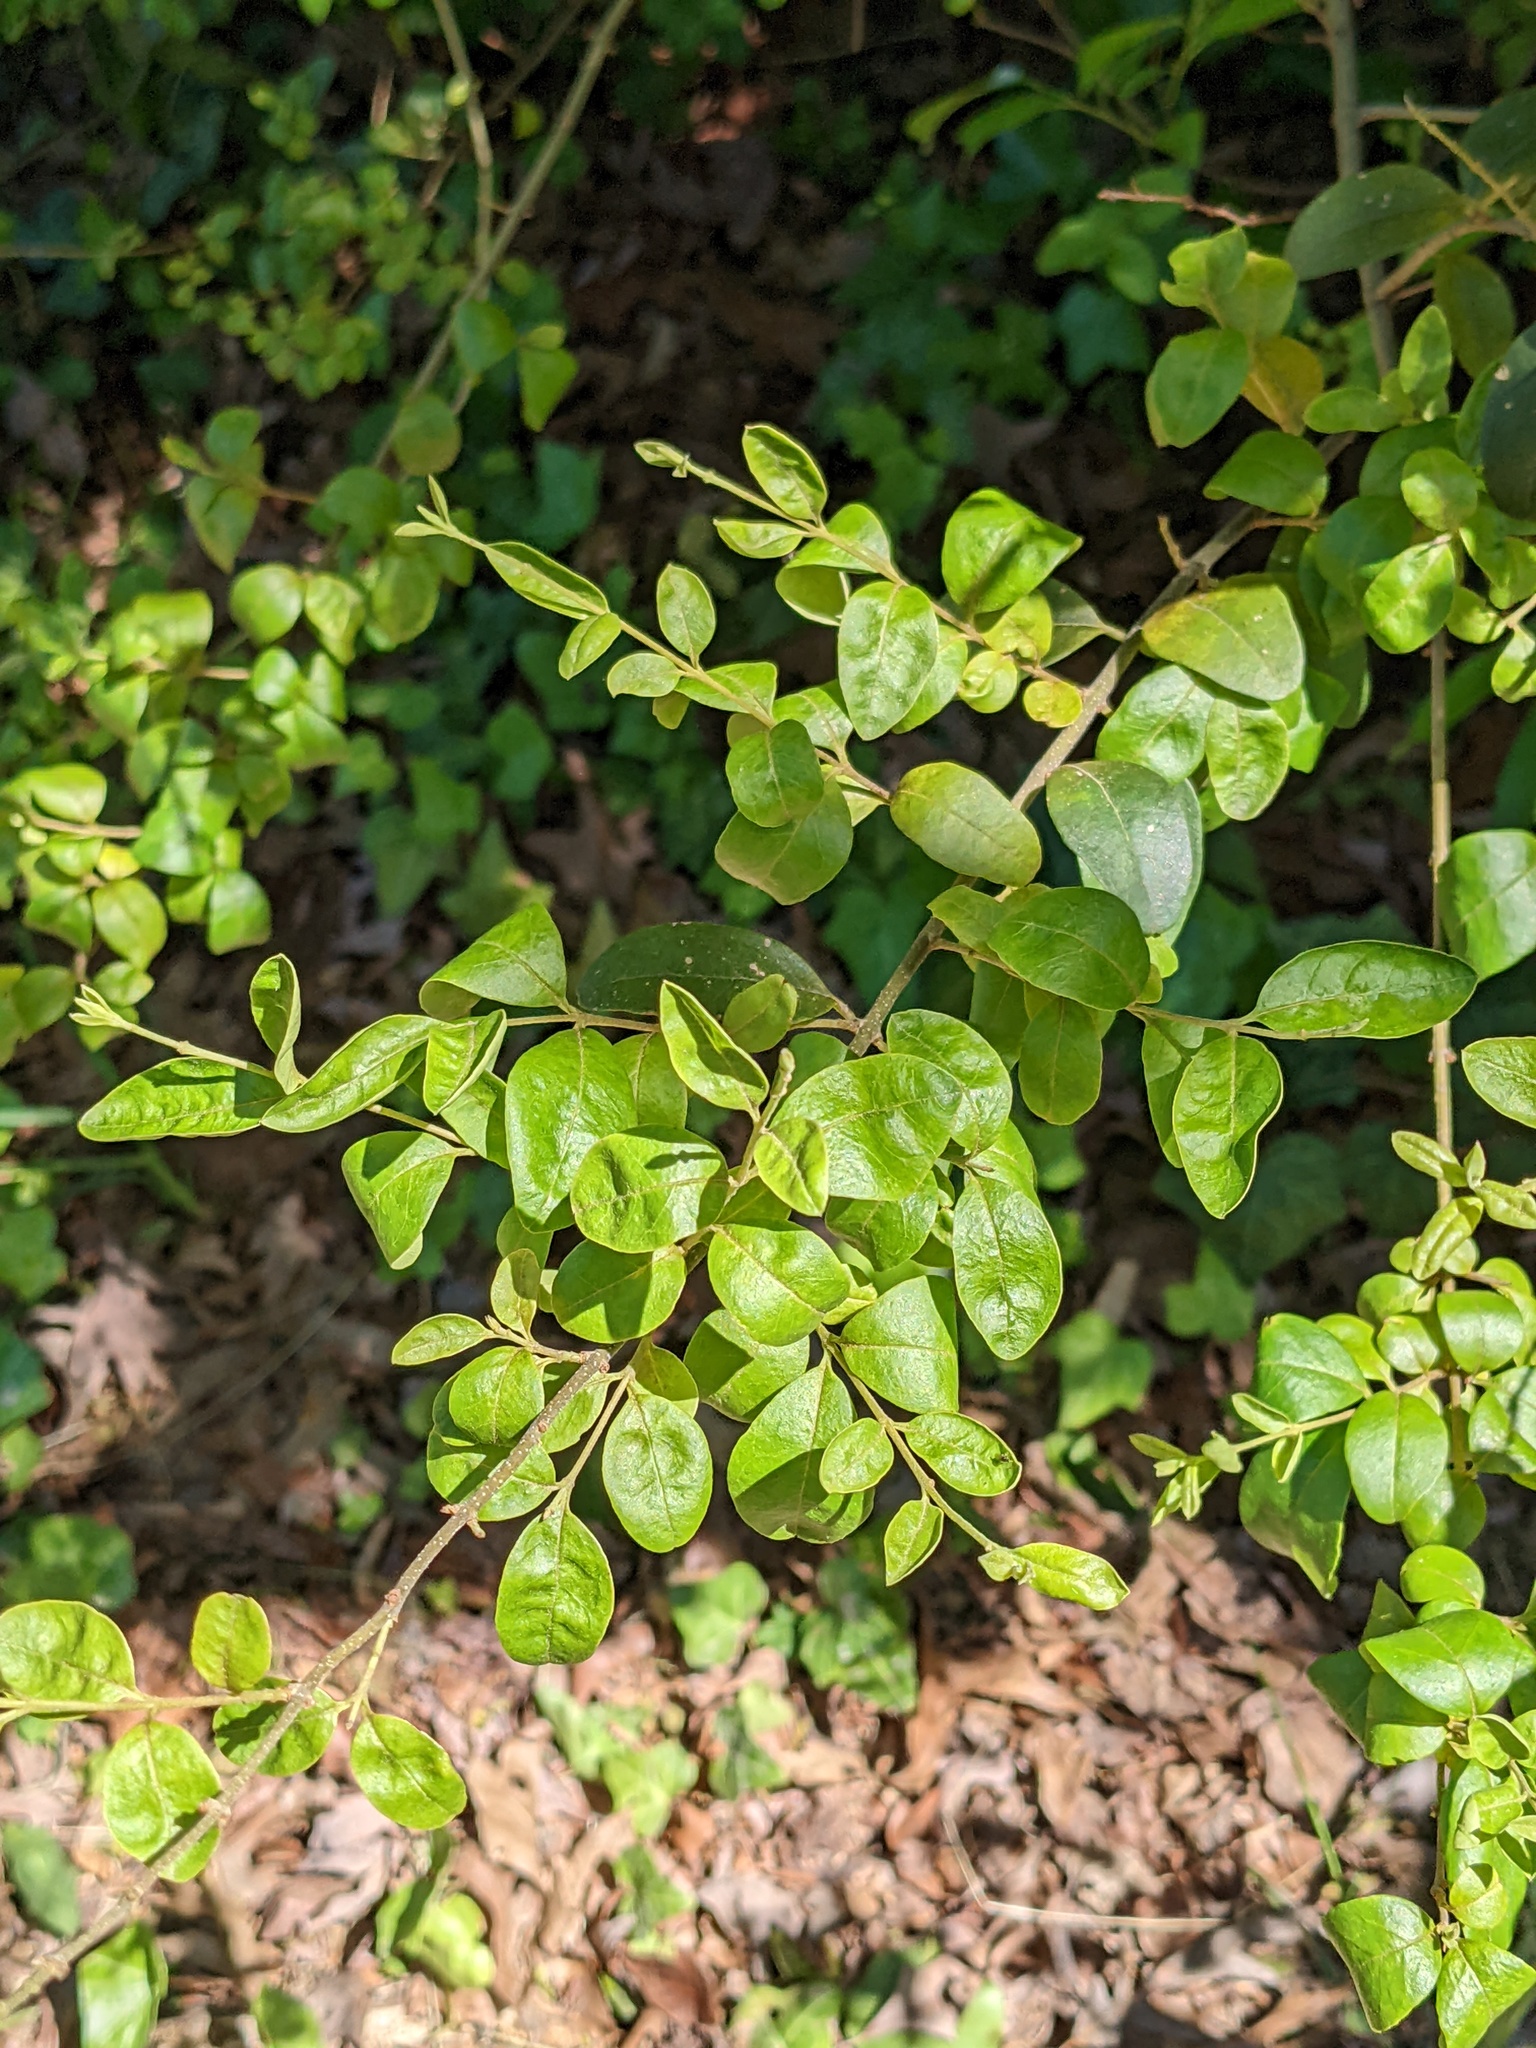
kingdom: Plantae
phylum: Tracheophyta
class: Magnoliopsida
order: Lamiales
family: Oleaceae
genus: Ligustrum
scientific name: Ligustrum sinense
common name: Chinese privet
